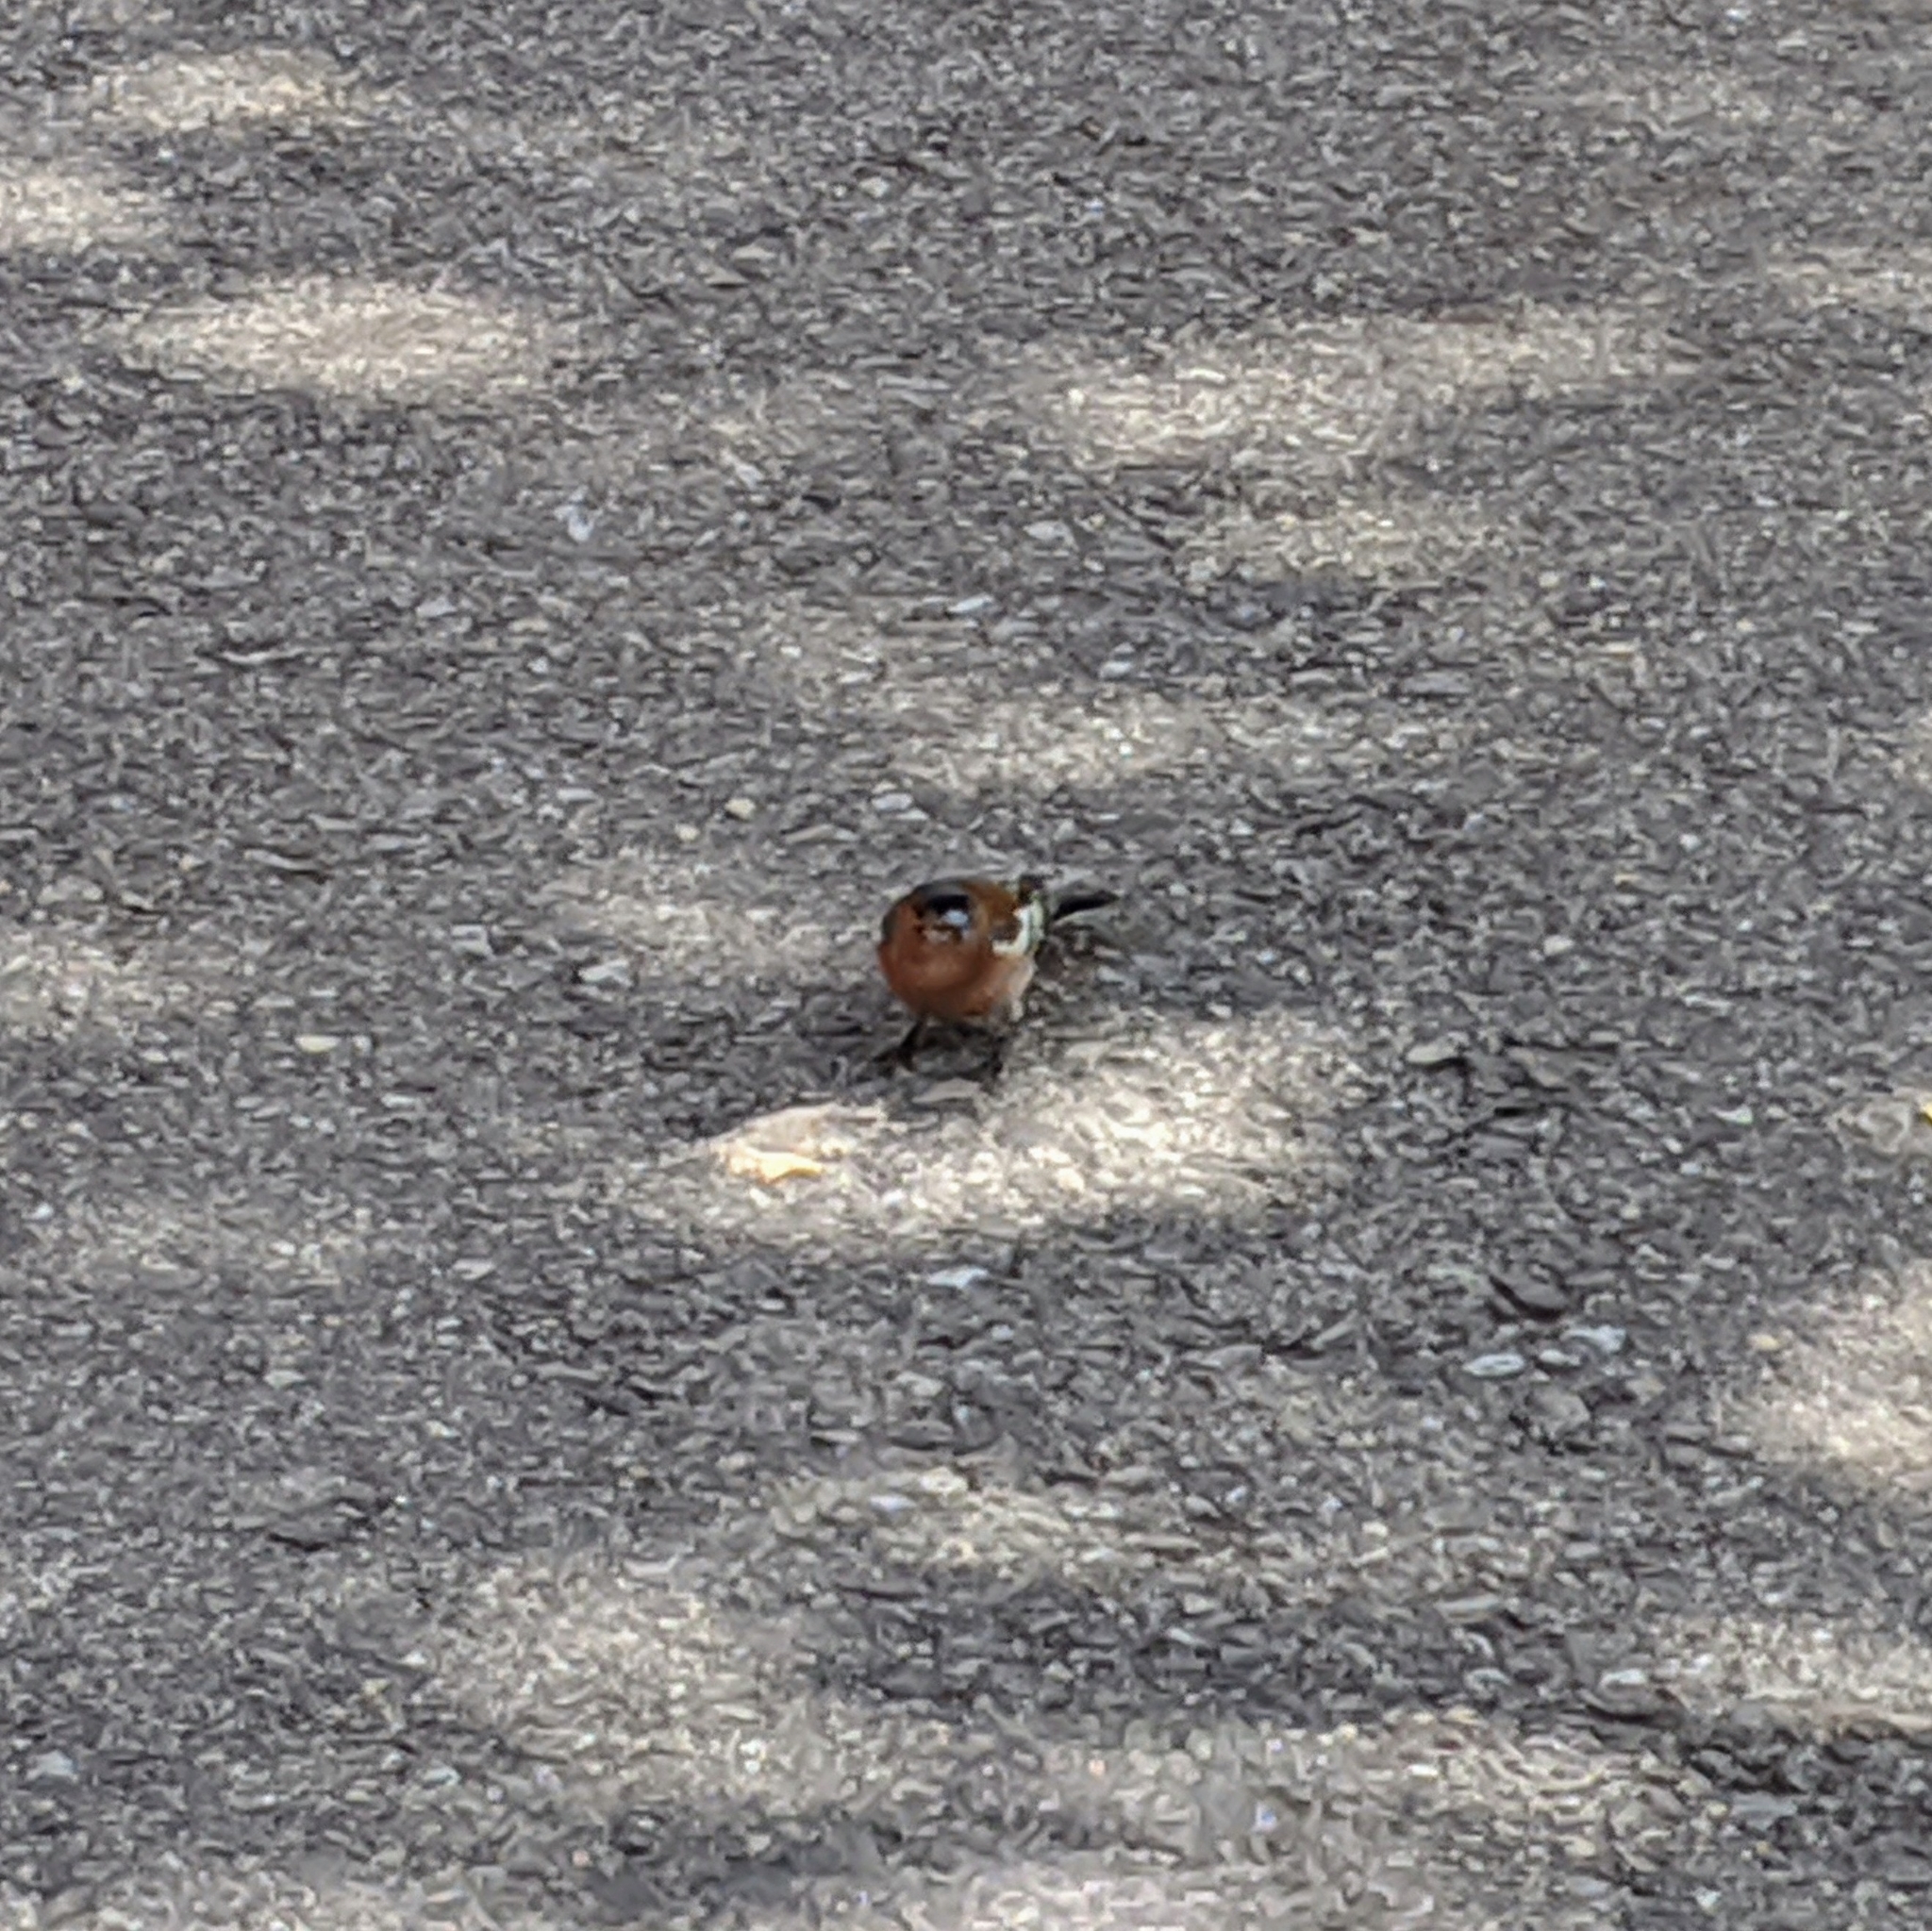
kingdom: Animalia
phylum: Chordata
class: Aves
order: Passeriformes
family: Fringillidae
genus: Fringilla
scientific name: Fringilla coelebs
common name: Common chaffinch
